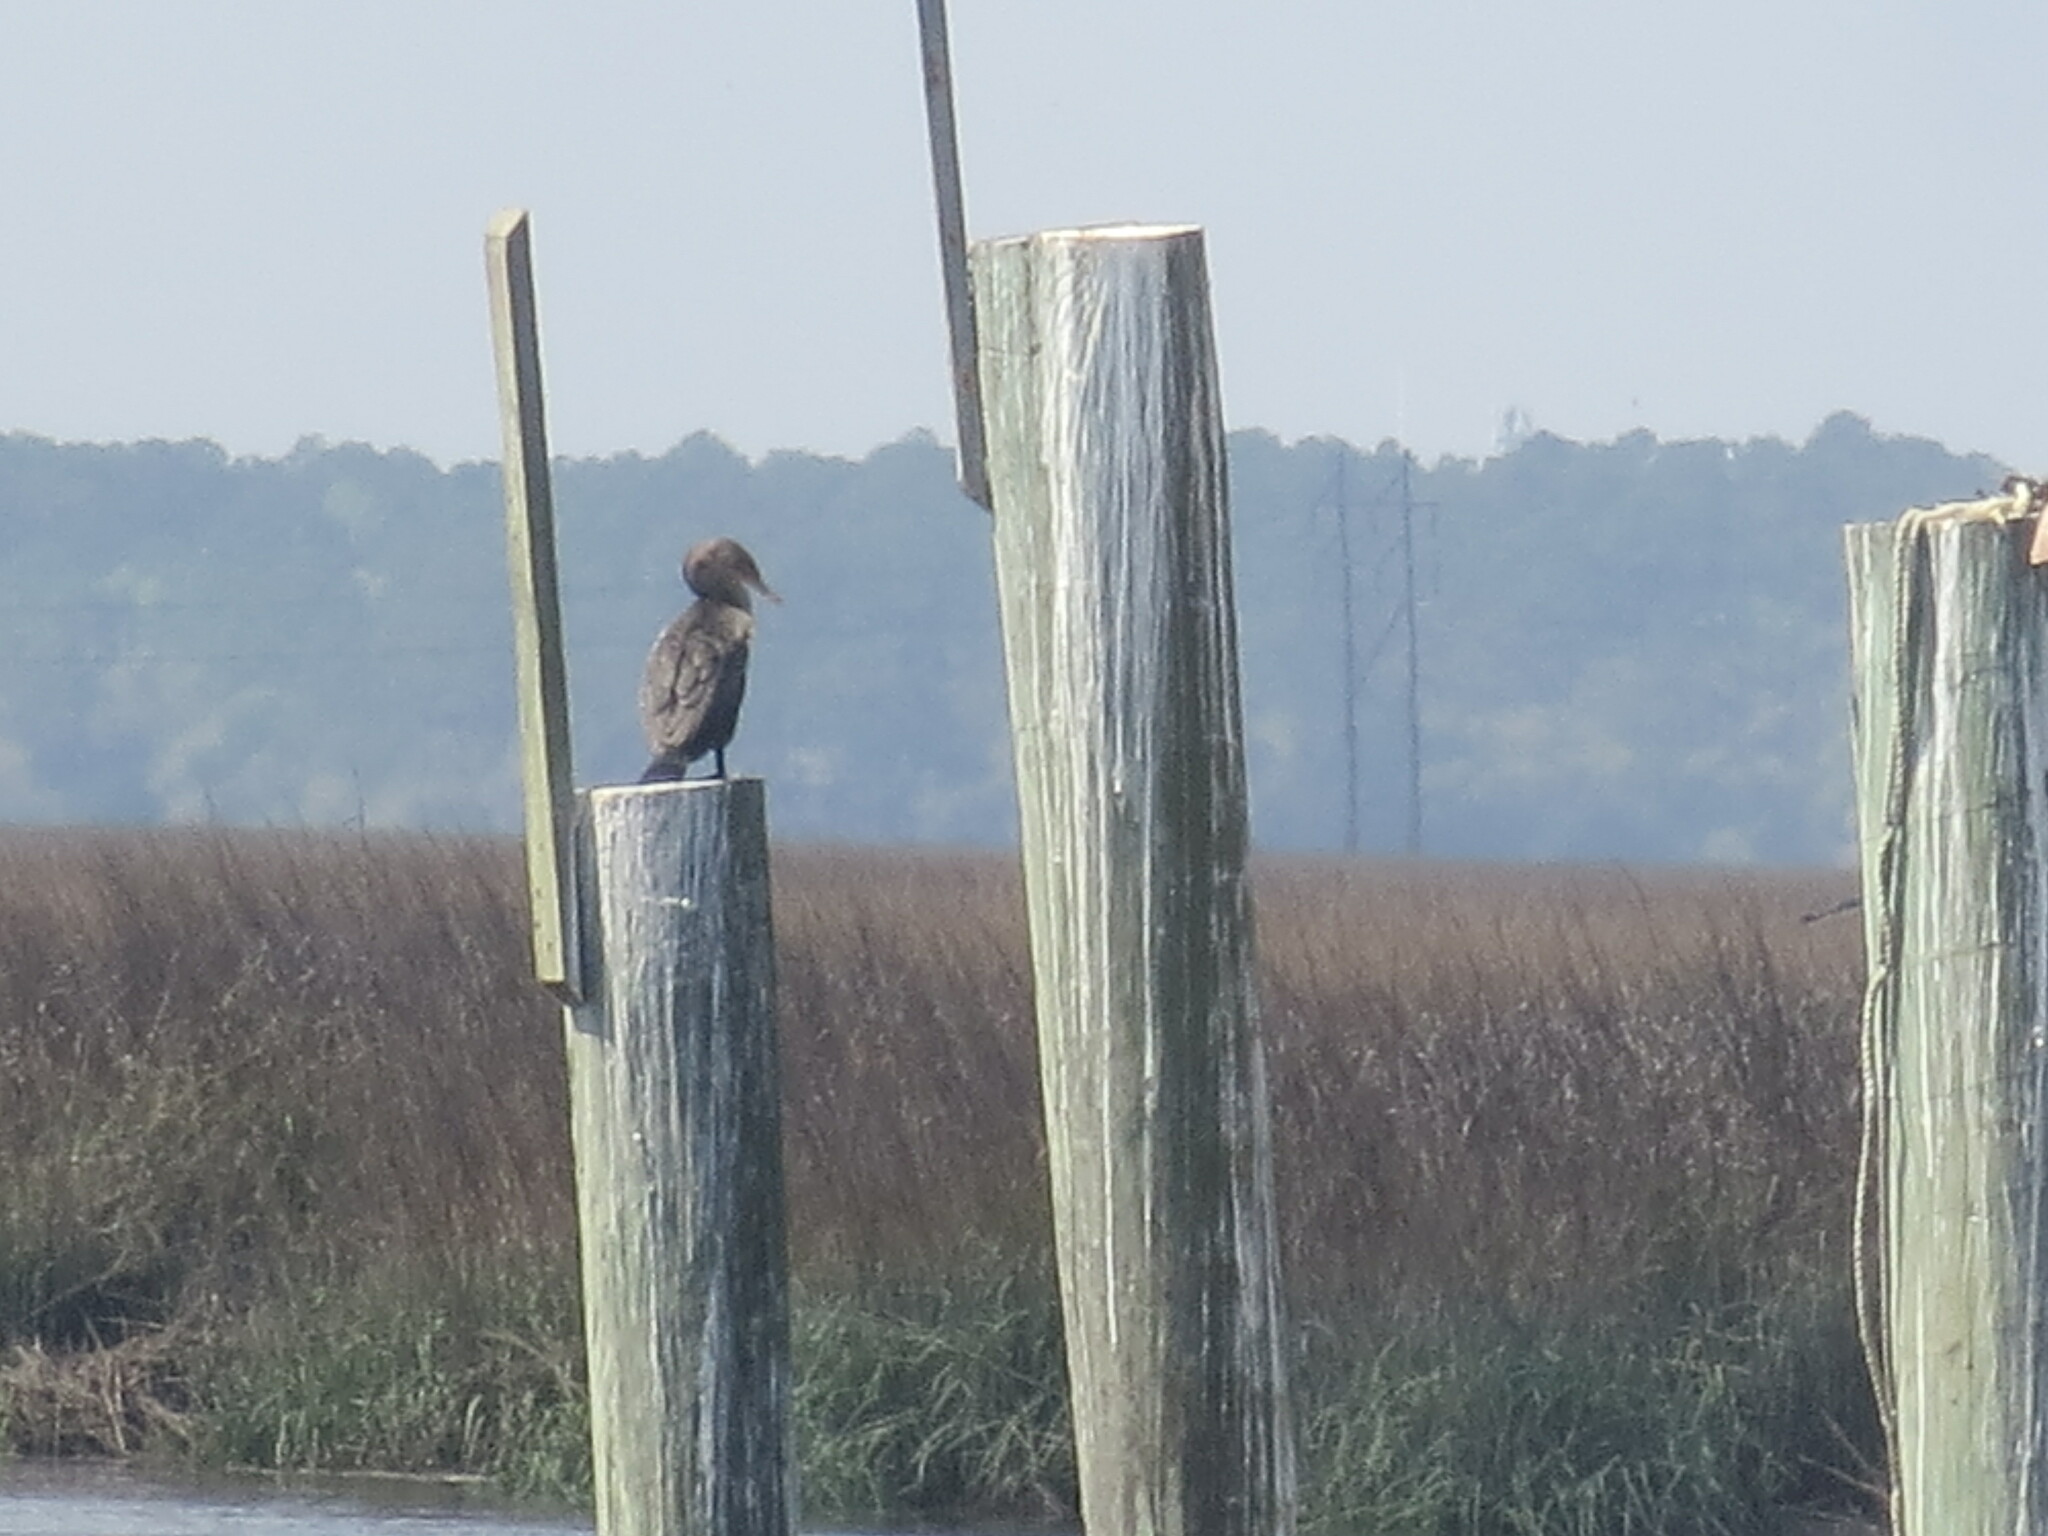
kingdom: Animalia
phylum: Chordata
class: Aves
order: Suliformes
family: Phalacrocoracidae
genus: Phalacrocorax
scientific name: Phalacrocorax auritus
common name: Double-crested cormorant
